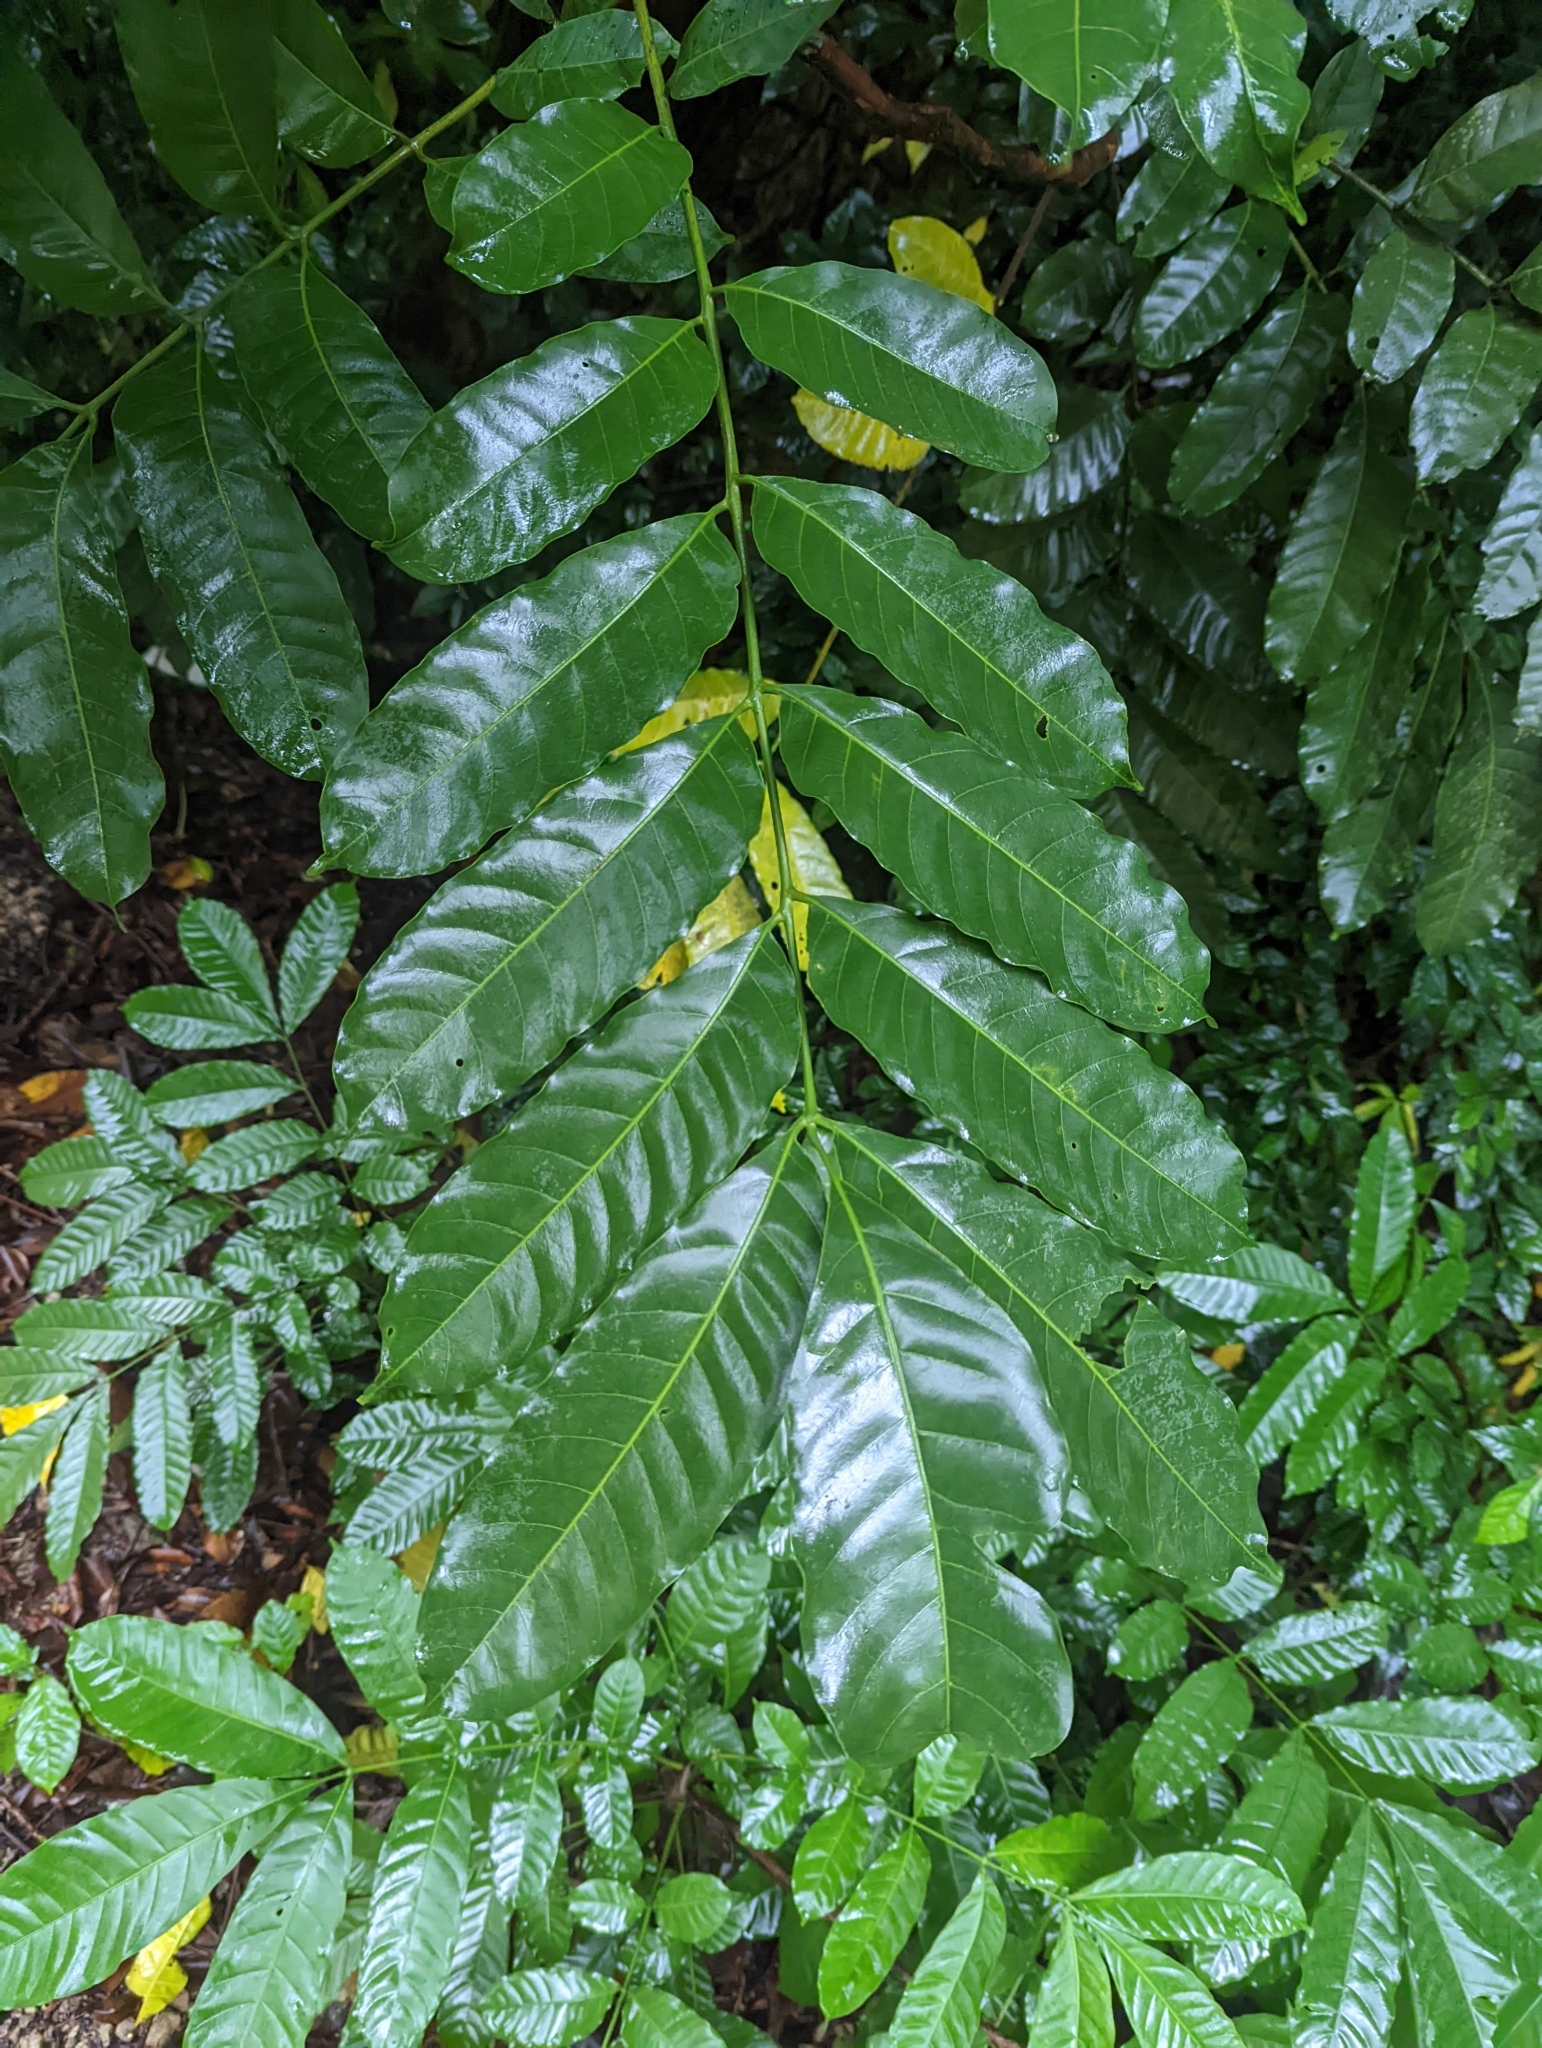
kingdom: Plantae
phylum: Tracheophyta
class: Magnoliopsida
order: Sapindales
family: Meliaceae
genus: Aphanamixis
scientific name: Aphanamixis polystachya
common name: Pithraj tree
